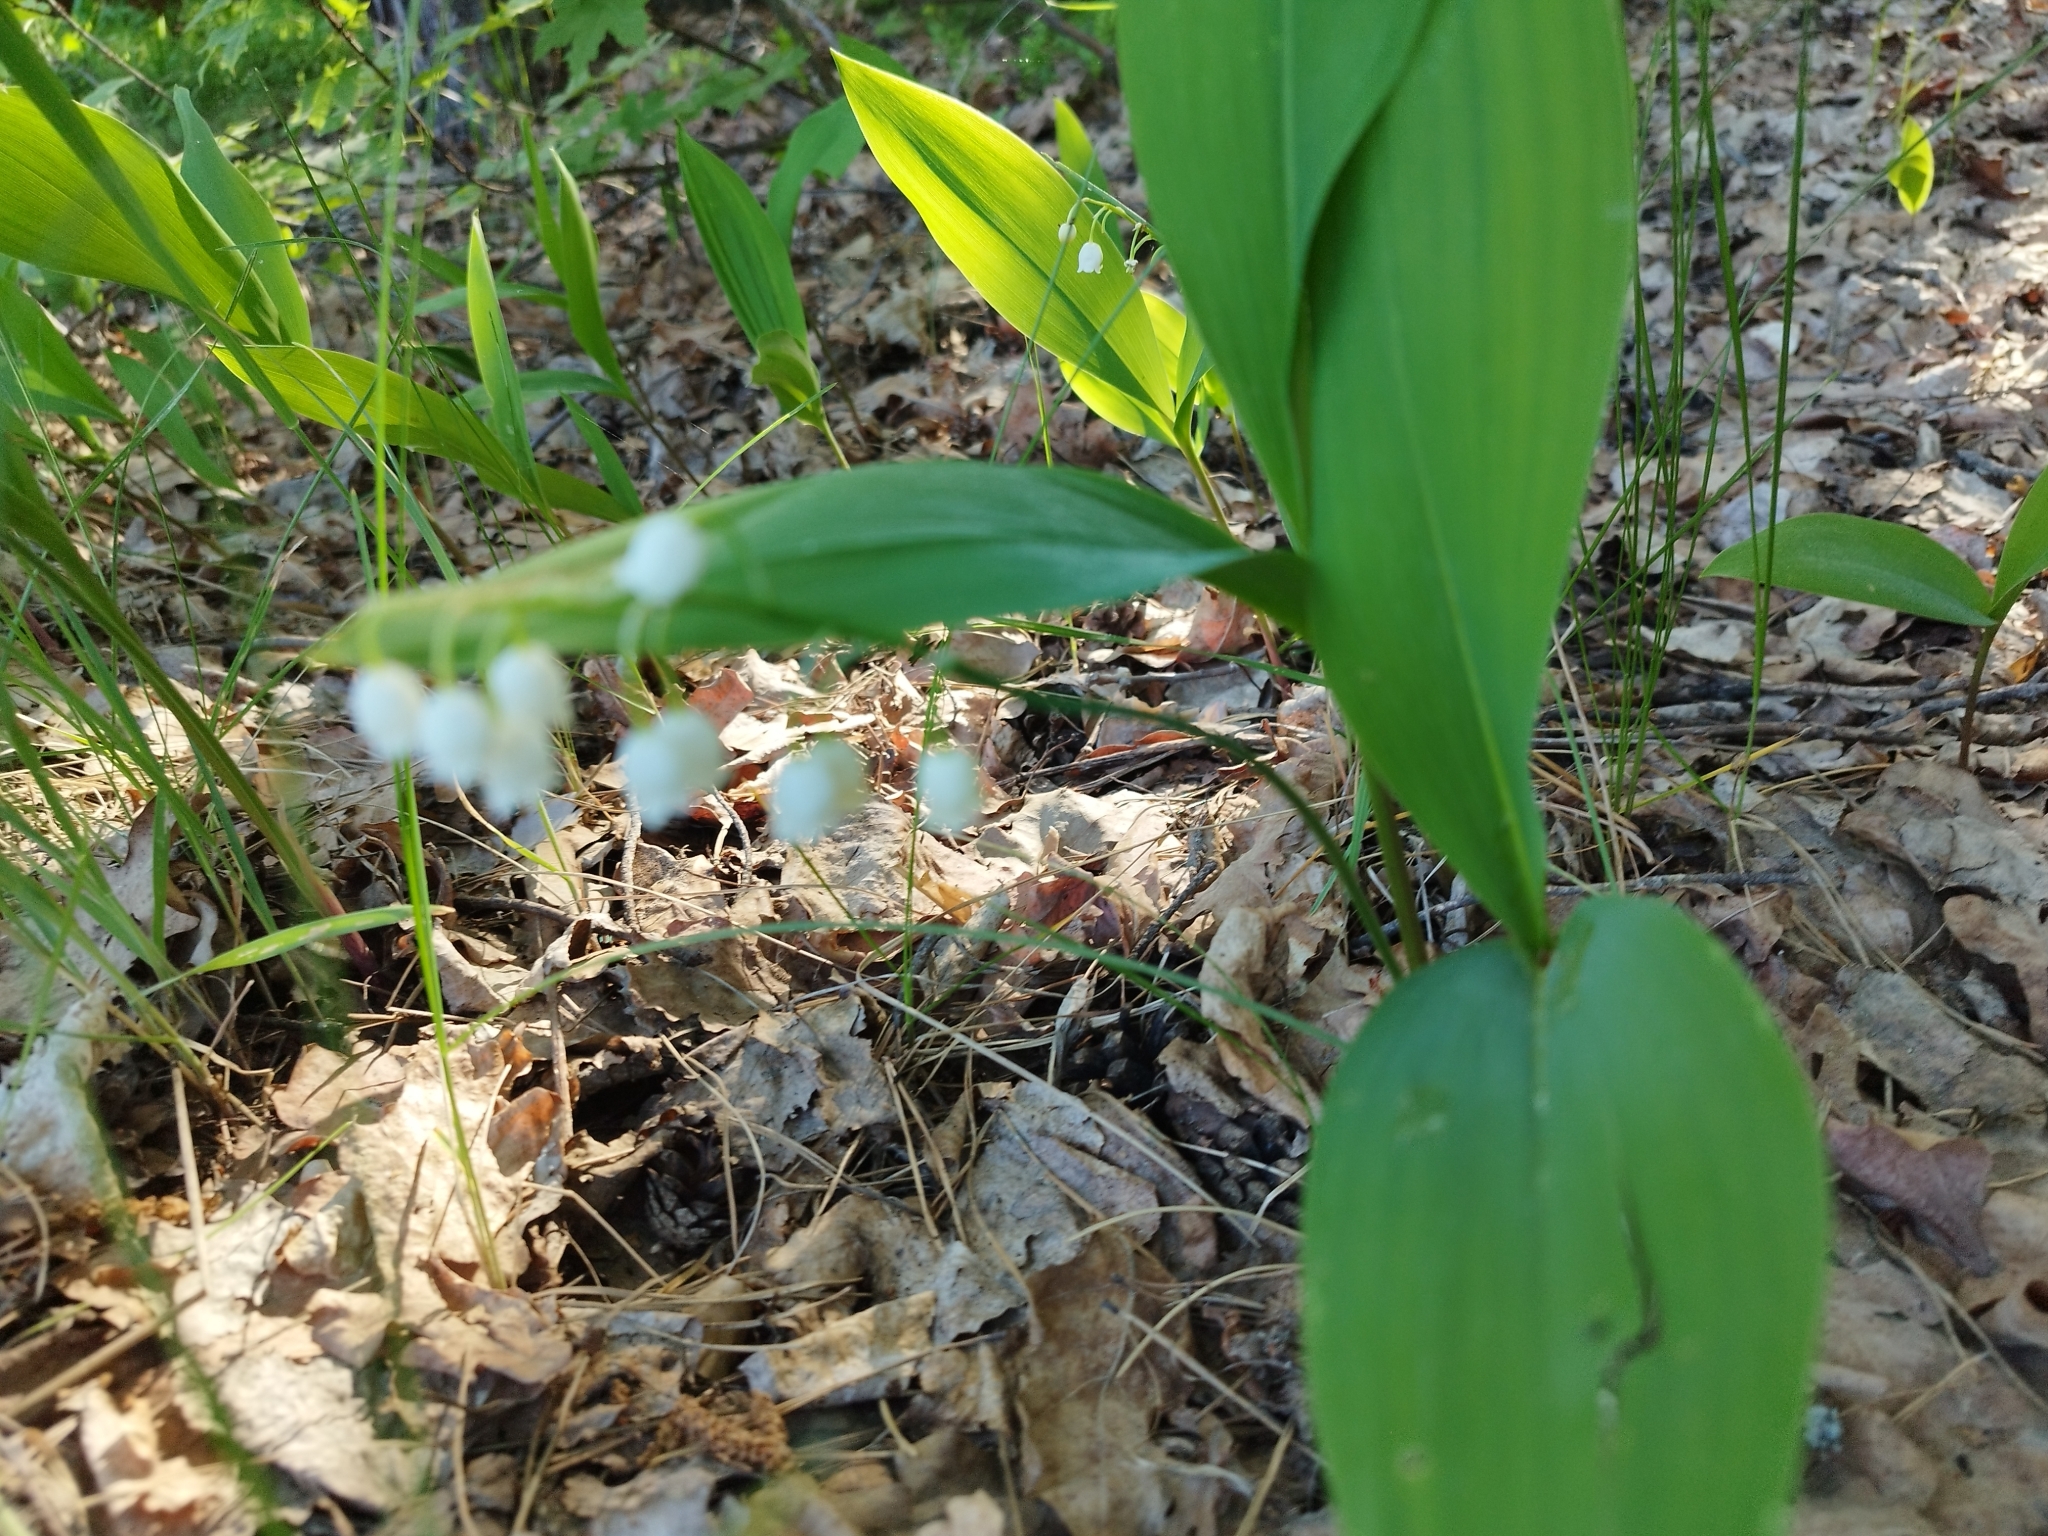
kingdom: Plantae
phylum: Tracheophyta
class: Liliopsida
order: Asparagales
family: Asparagaceae
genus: Convallaria
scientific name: Convallaria majalis
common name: Lily-of-the-valley
